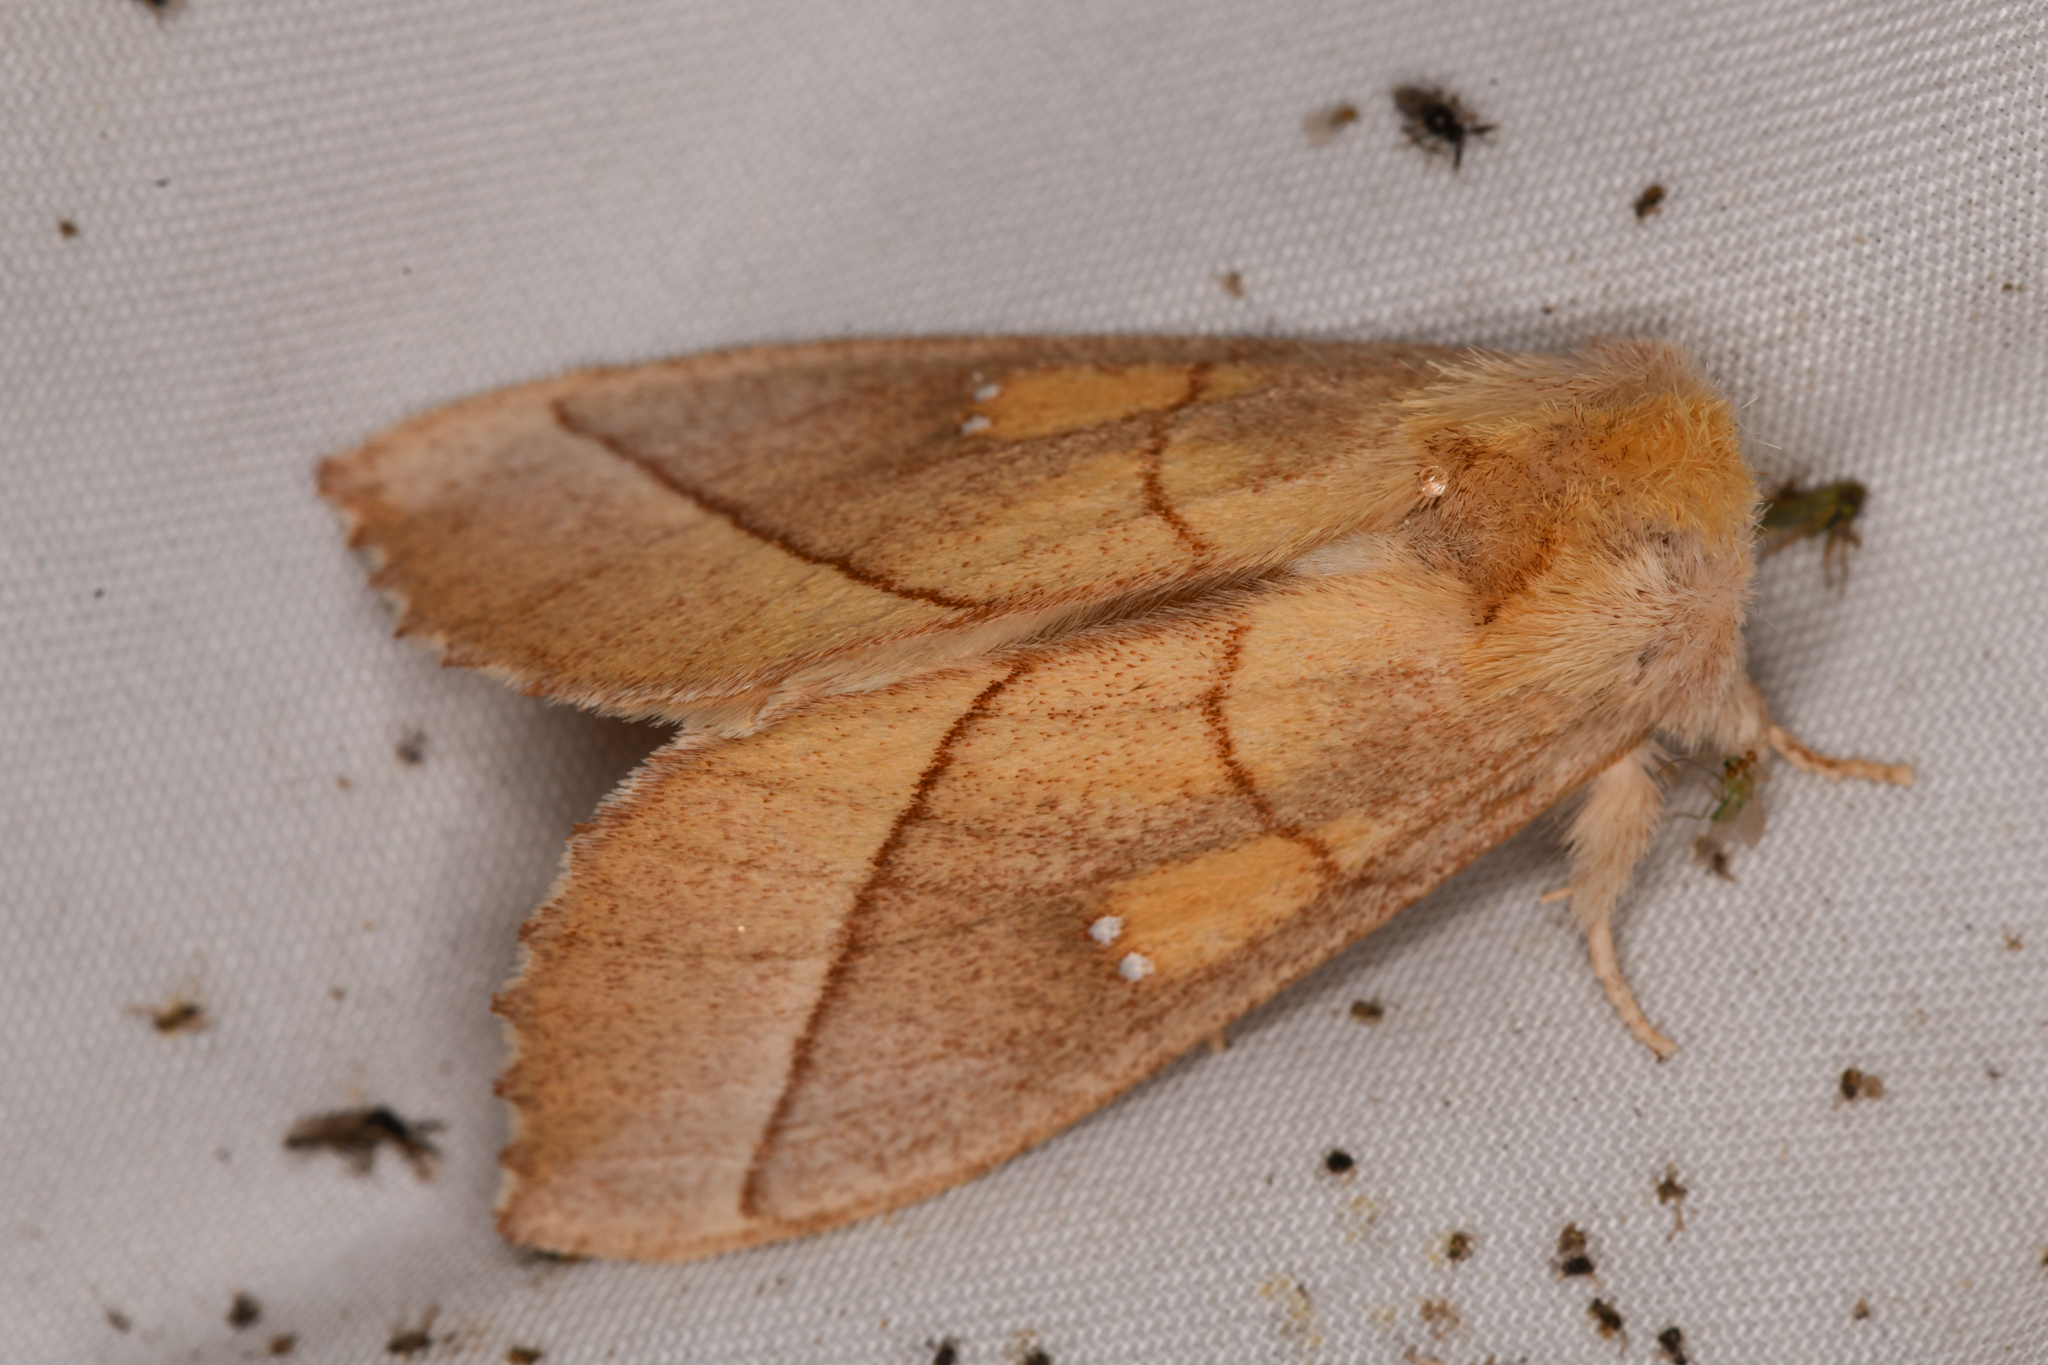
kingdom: Animalia
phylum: Arthropoda
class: Insecta
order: Lepidoptera
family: Notodontidae
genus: Nadata
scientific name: Nadata gibbosa
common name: White-dotted prominent
